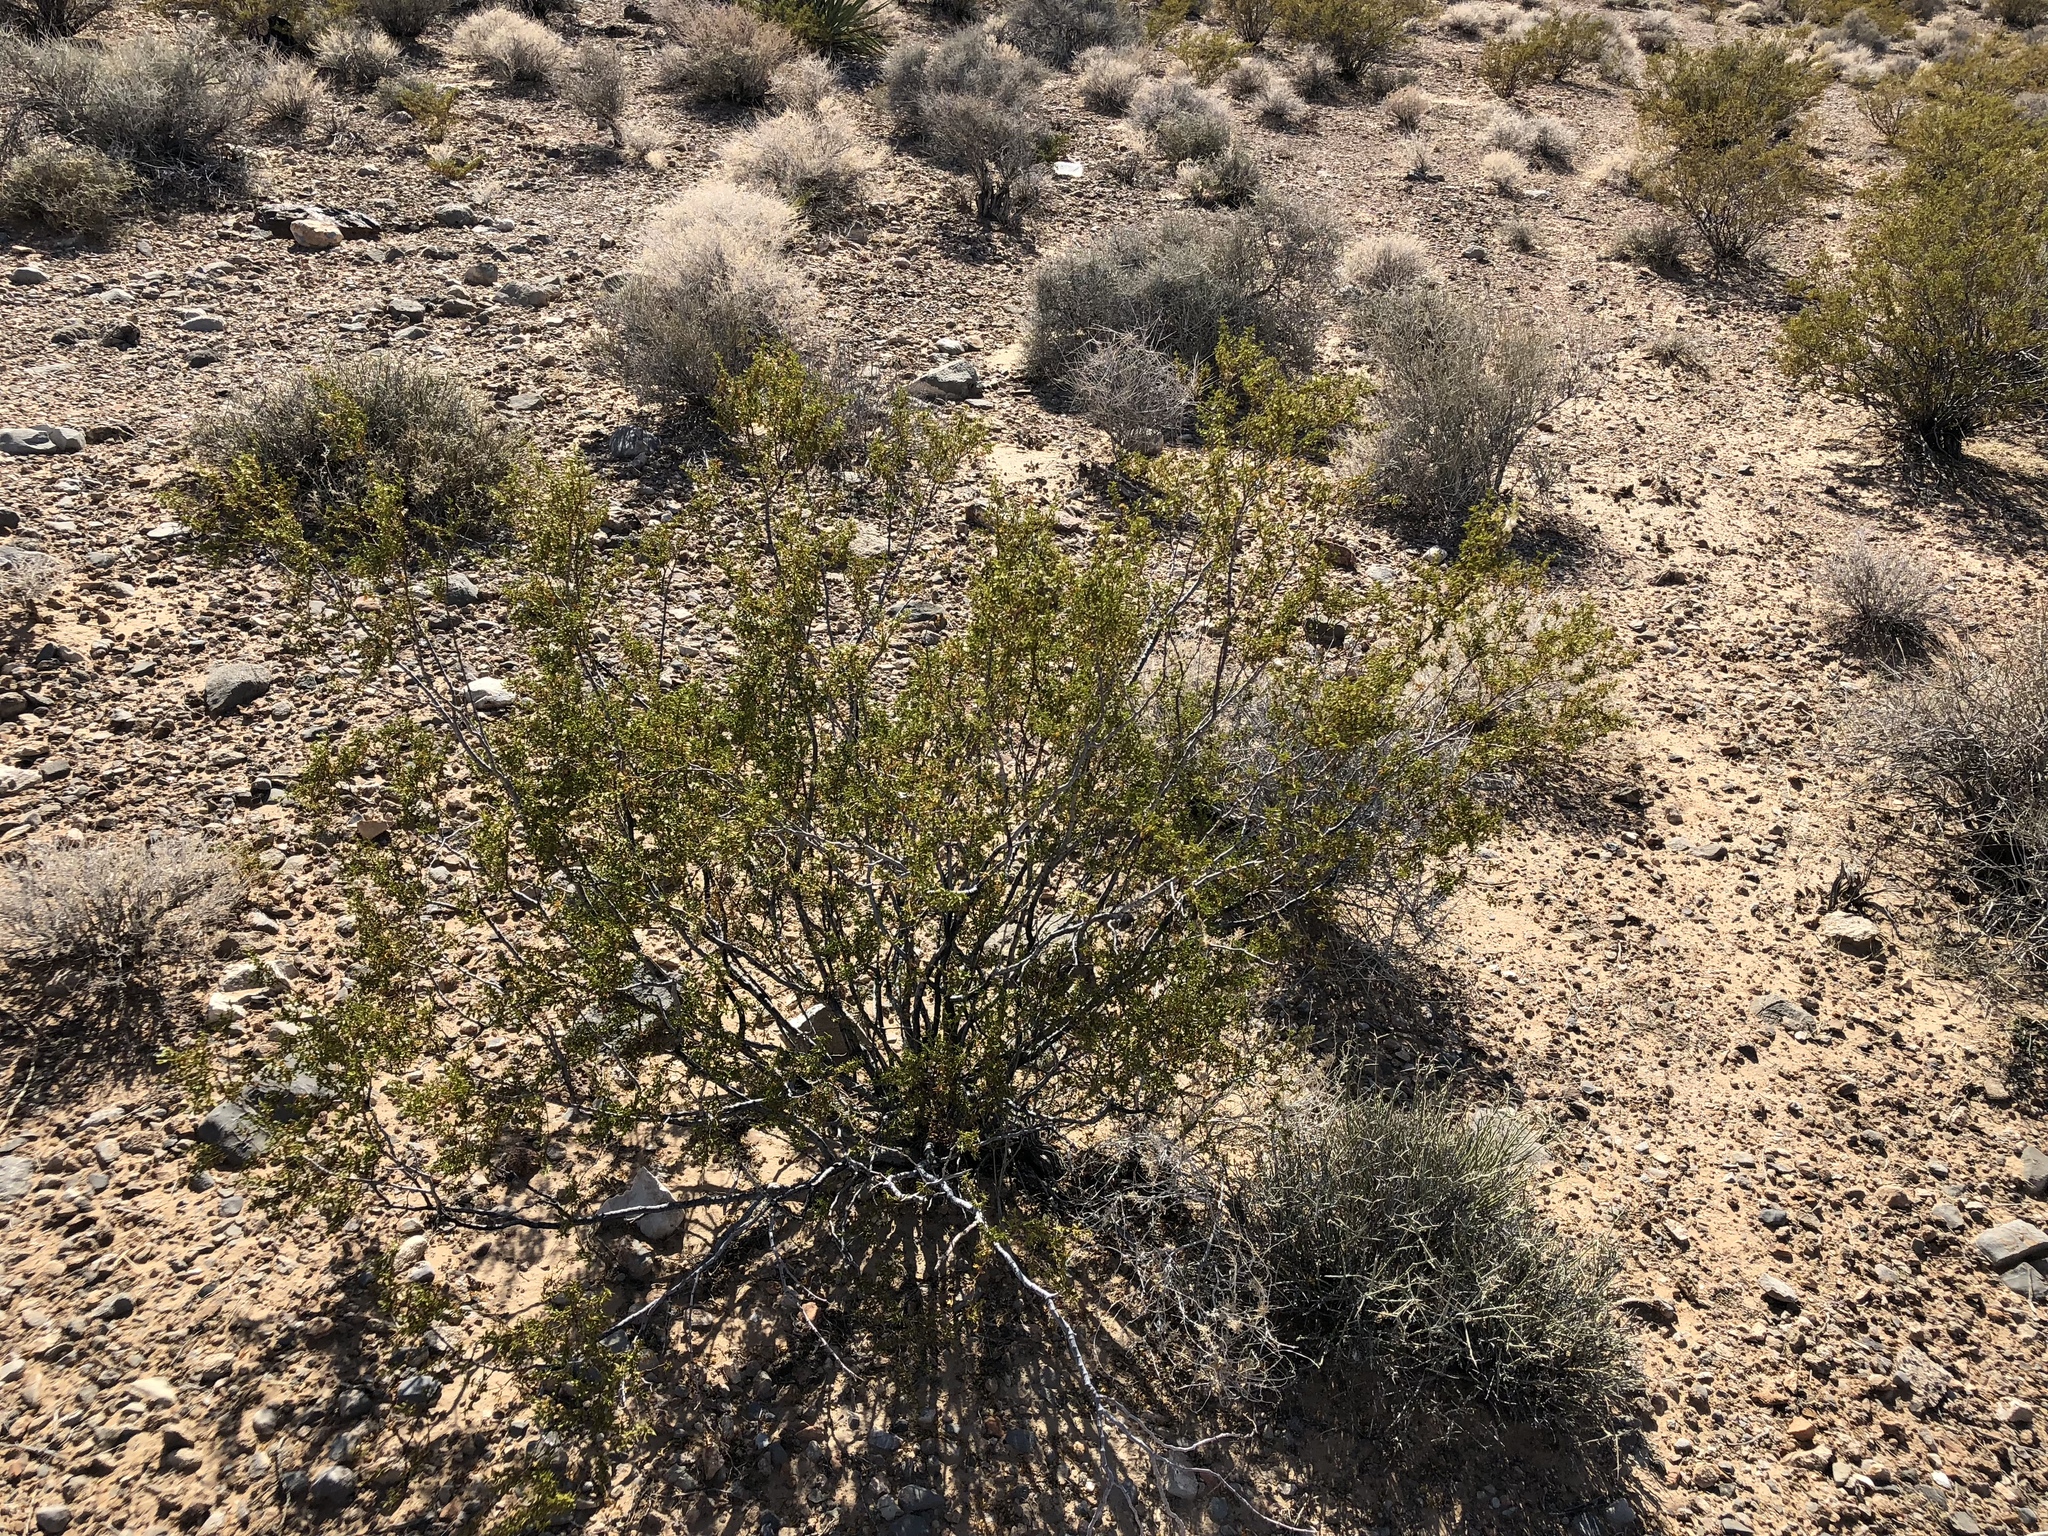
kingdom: Plantae
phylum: Tracheophyta
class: Magnoliopsida
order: Zygophyllales
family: Zygophyllaceae
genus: Larrea
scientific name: Larrea tridentata
